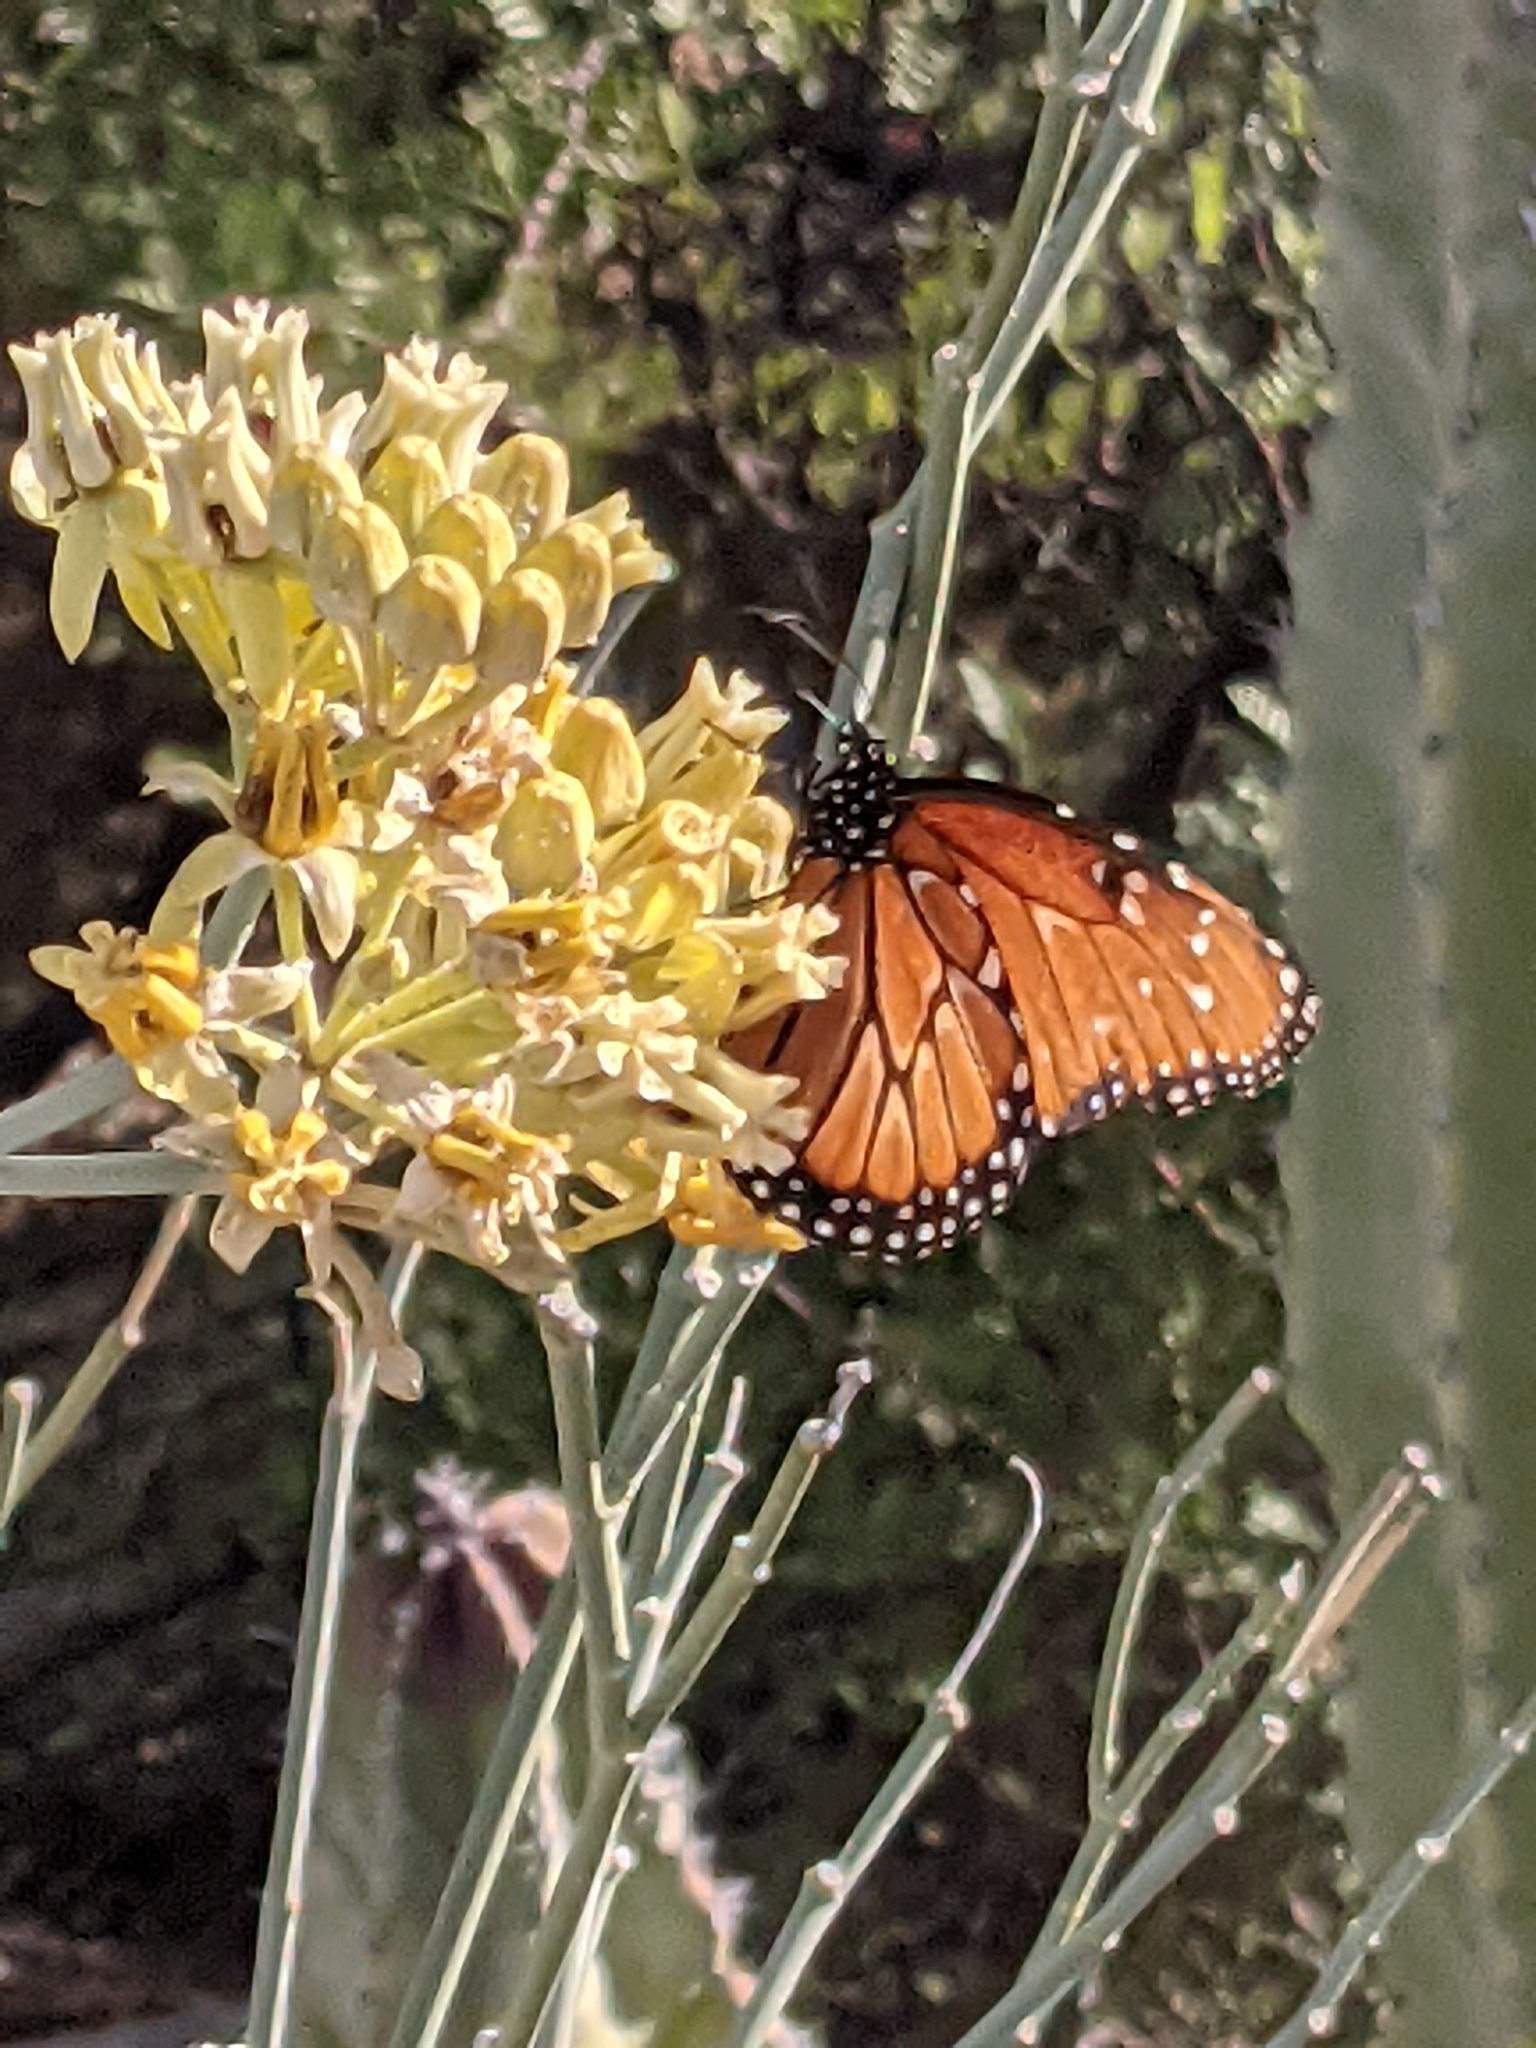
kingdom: Animalia
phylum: Arthropoda
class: Insecta
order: Lepidoptera
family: Nymphalidae
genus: Danaus
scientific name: Danaus gilippus
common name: Queen
